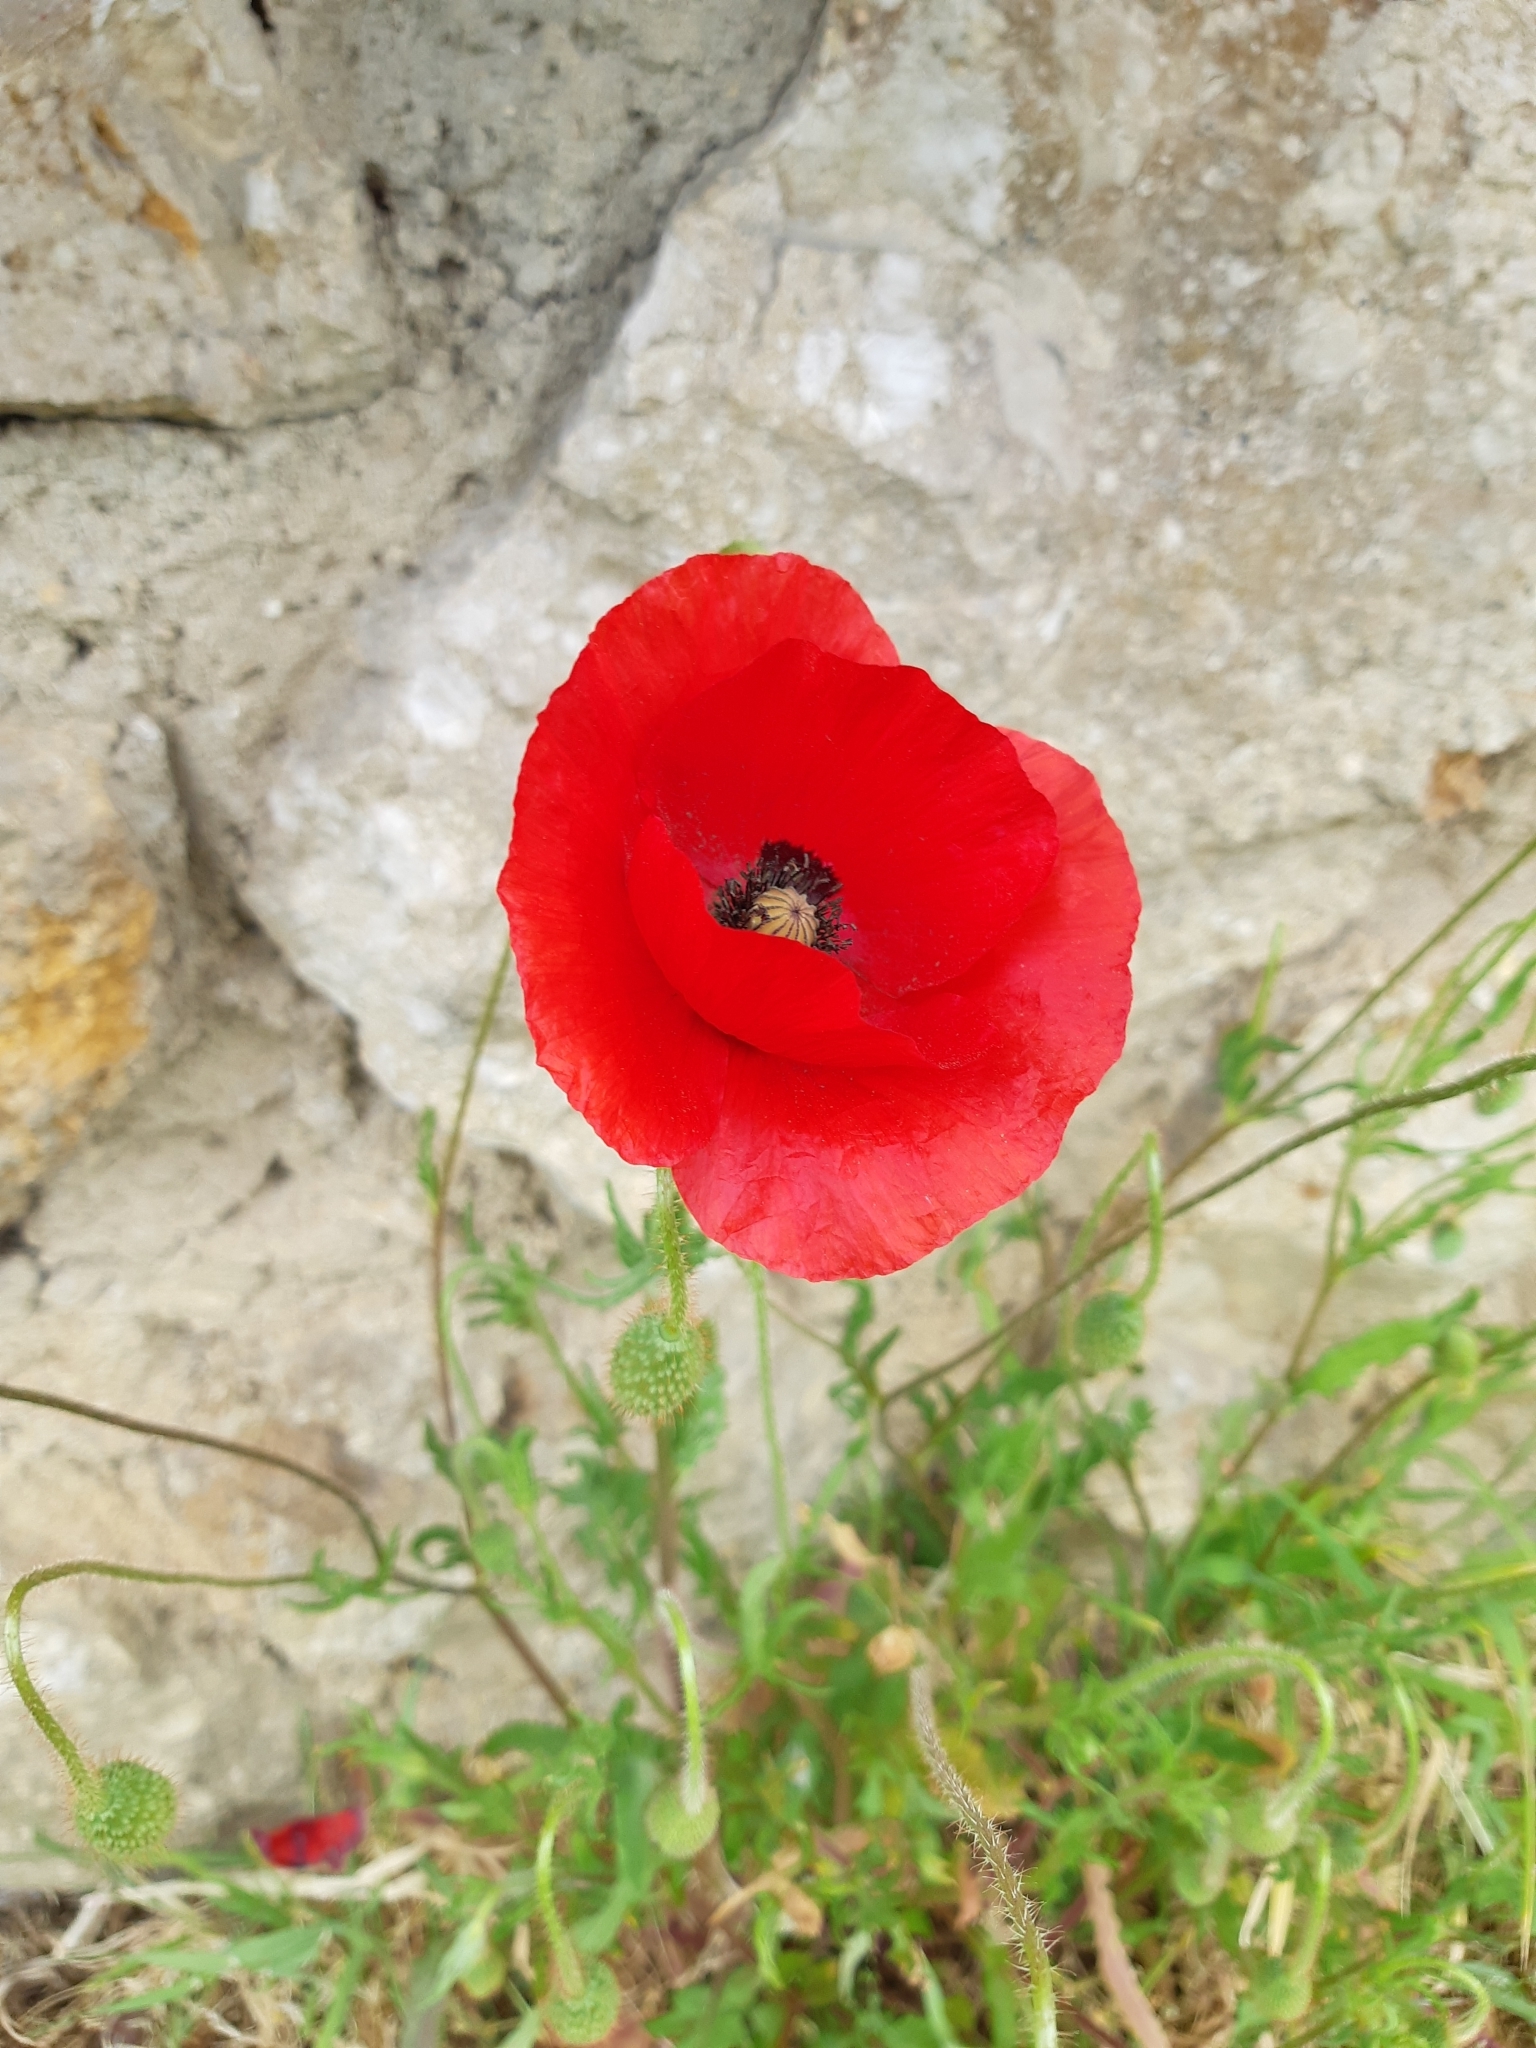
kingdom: Plantae
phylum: Tracheophyta
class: Magnoliopsida
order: Ranunculales
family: Papaveraceae
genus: Papaver
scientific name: Papaver rhoeas
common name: Corn poppy
